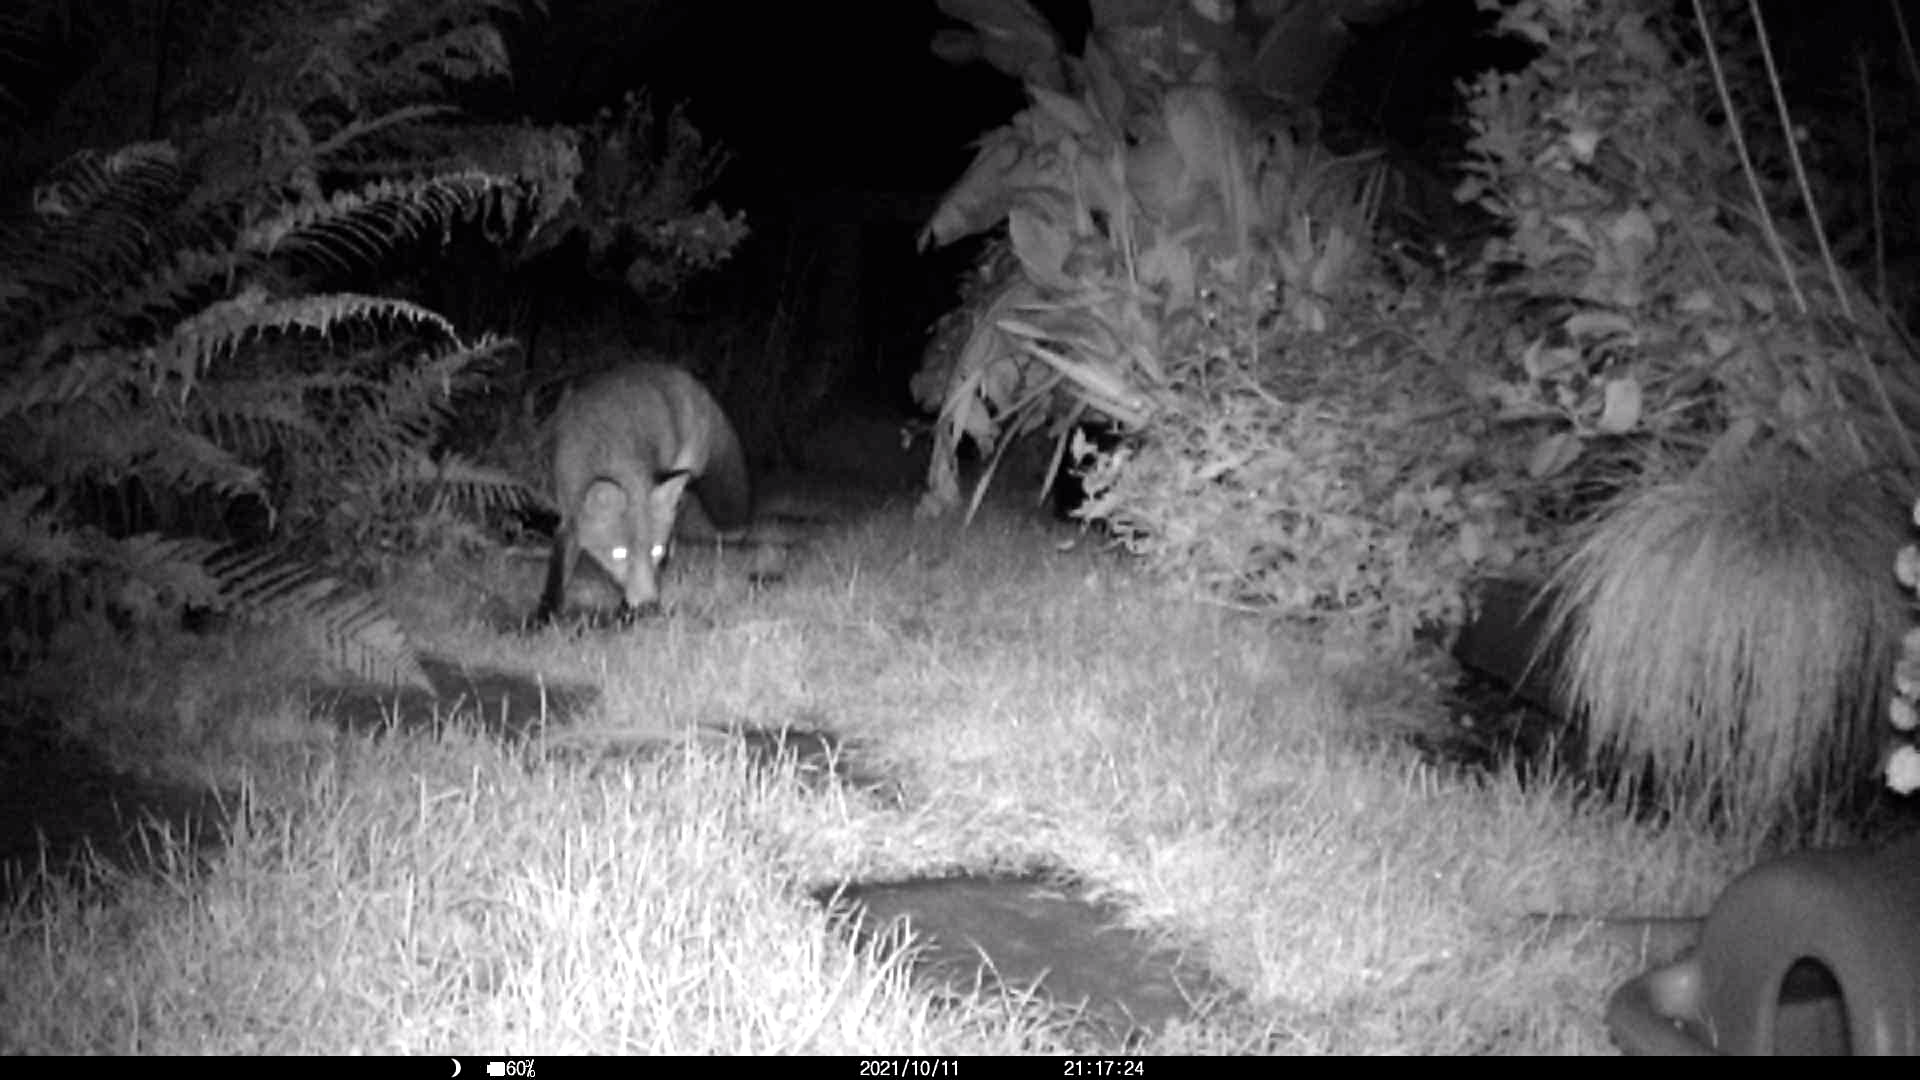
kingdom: Animalia
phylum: Chordata
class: Mammalia
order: Carnivora
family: Canidae
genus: Vulpes
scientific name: Vulpes vulpes
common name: Red fox
